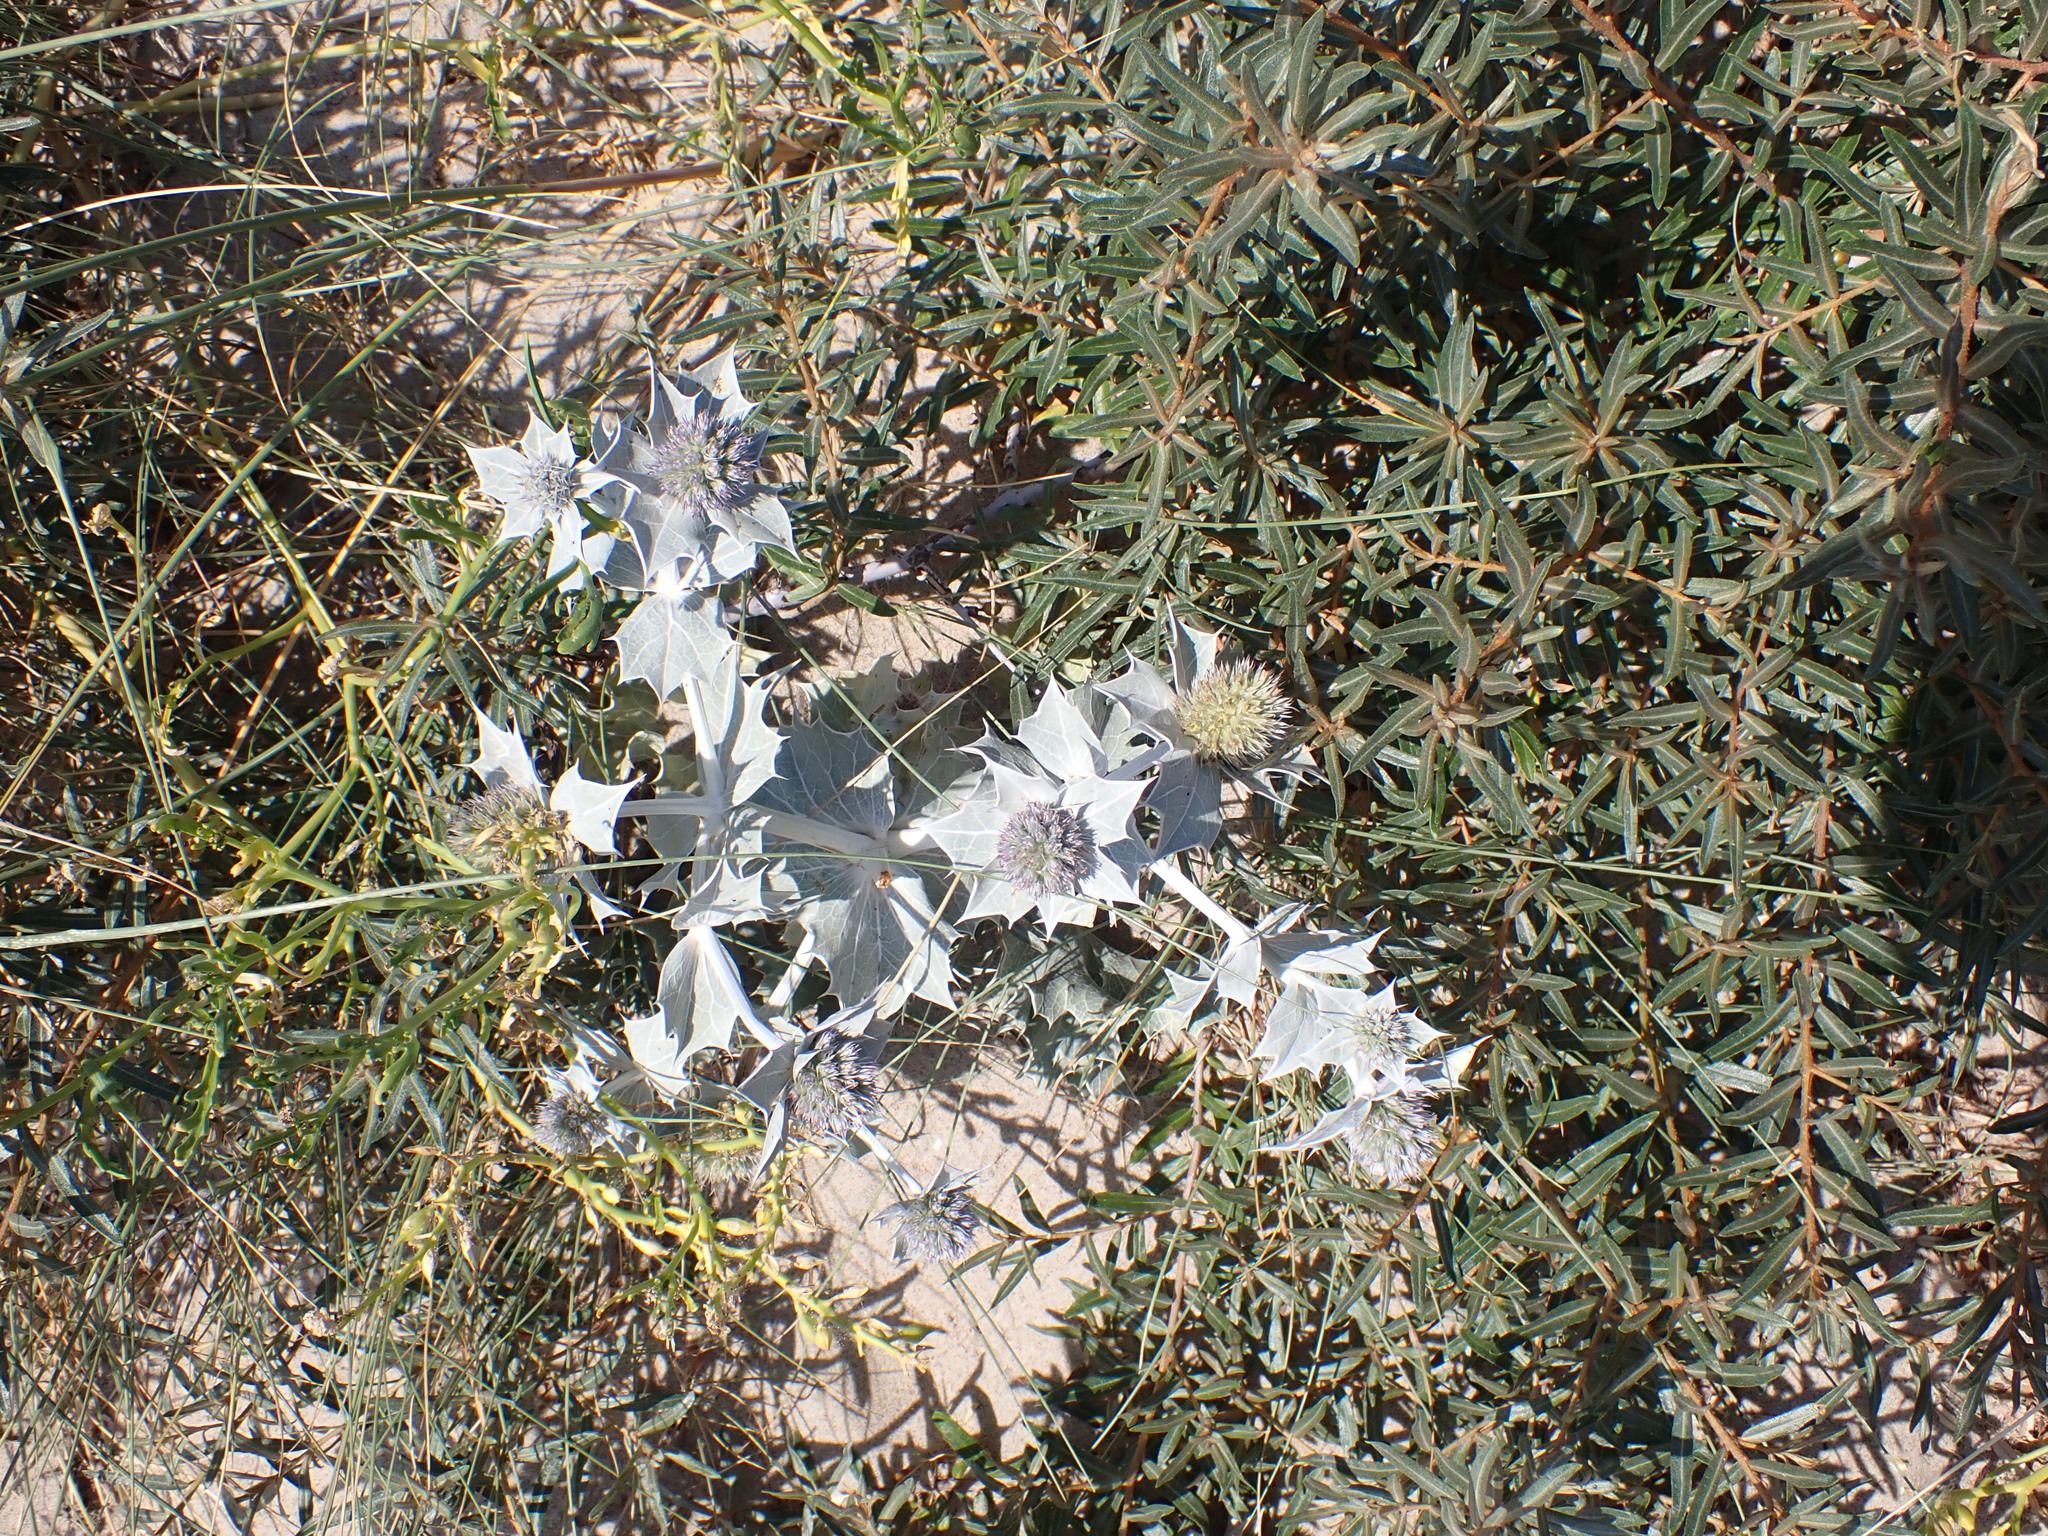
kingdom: Plantae
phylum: Tracheophyta
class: Magnoliopsida
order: Apiales
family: Apiaceae
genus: Eryngium
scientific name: Eryngium maritimum
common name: Sea-holly
